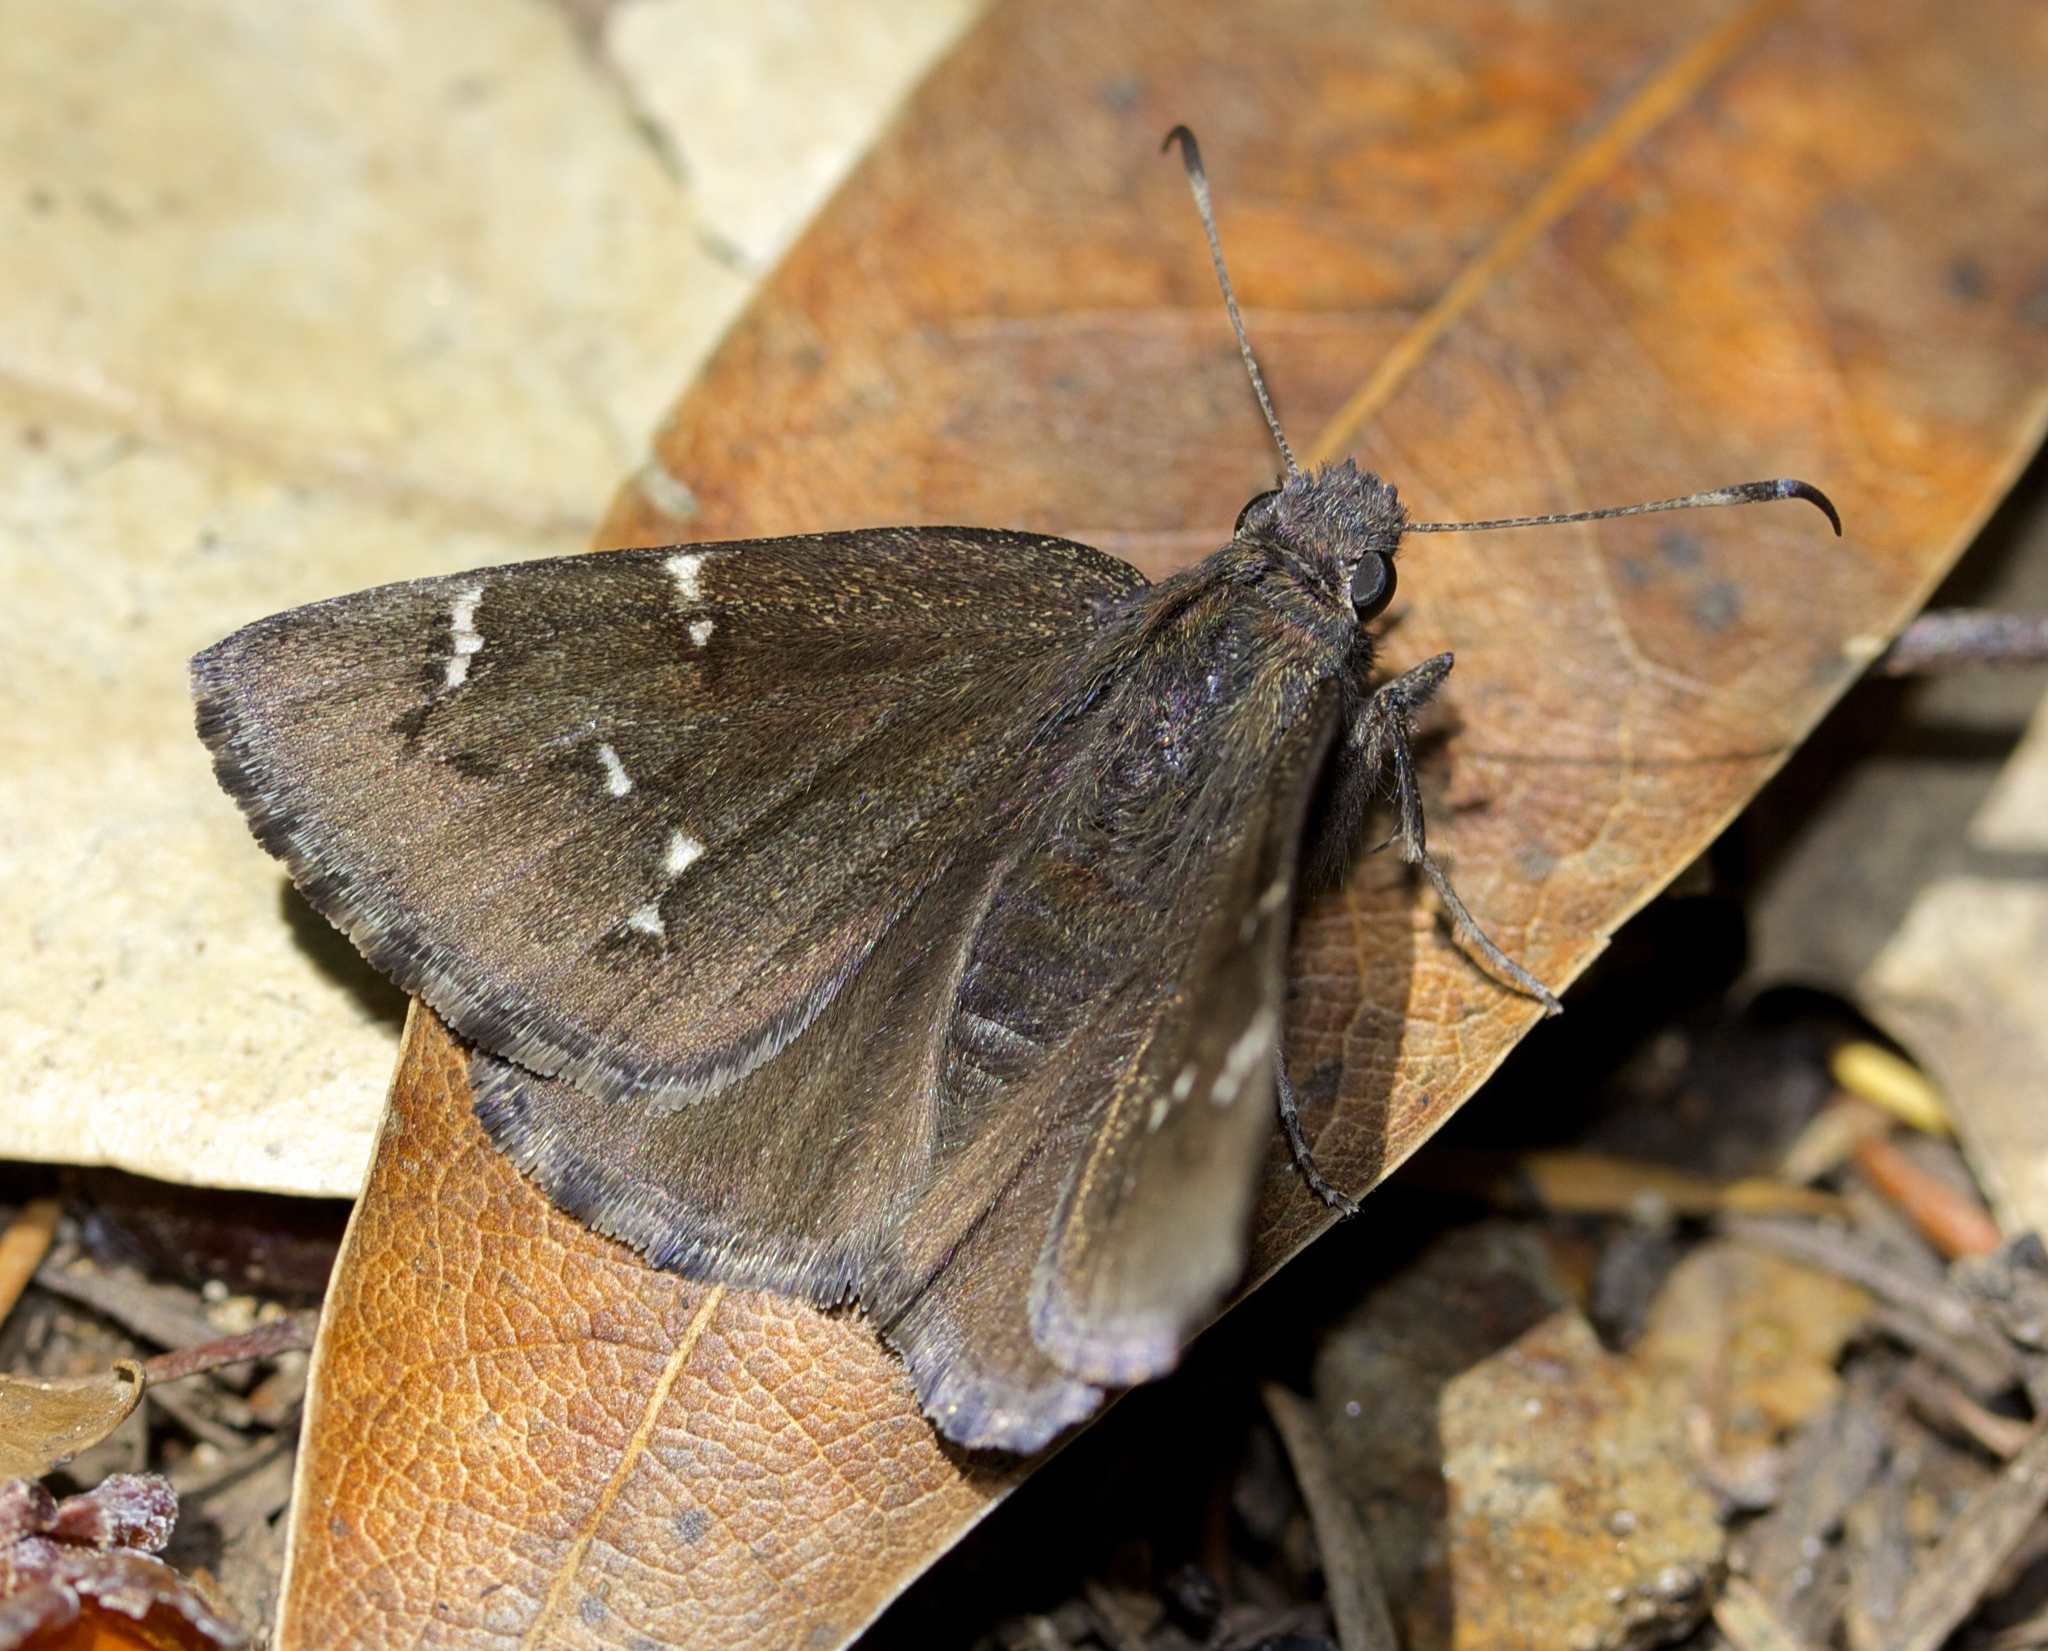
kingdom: Animalia
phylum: Arthropoda
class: Insecta
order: Lepidoptera
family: Hesperiidae
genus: Thorybes
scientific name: Thorybes pylades
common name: Northern cloudywing
